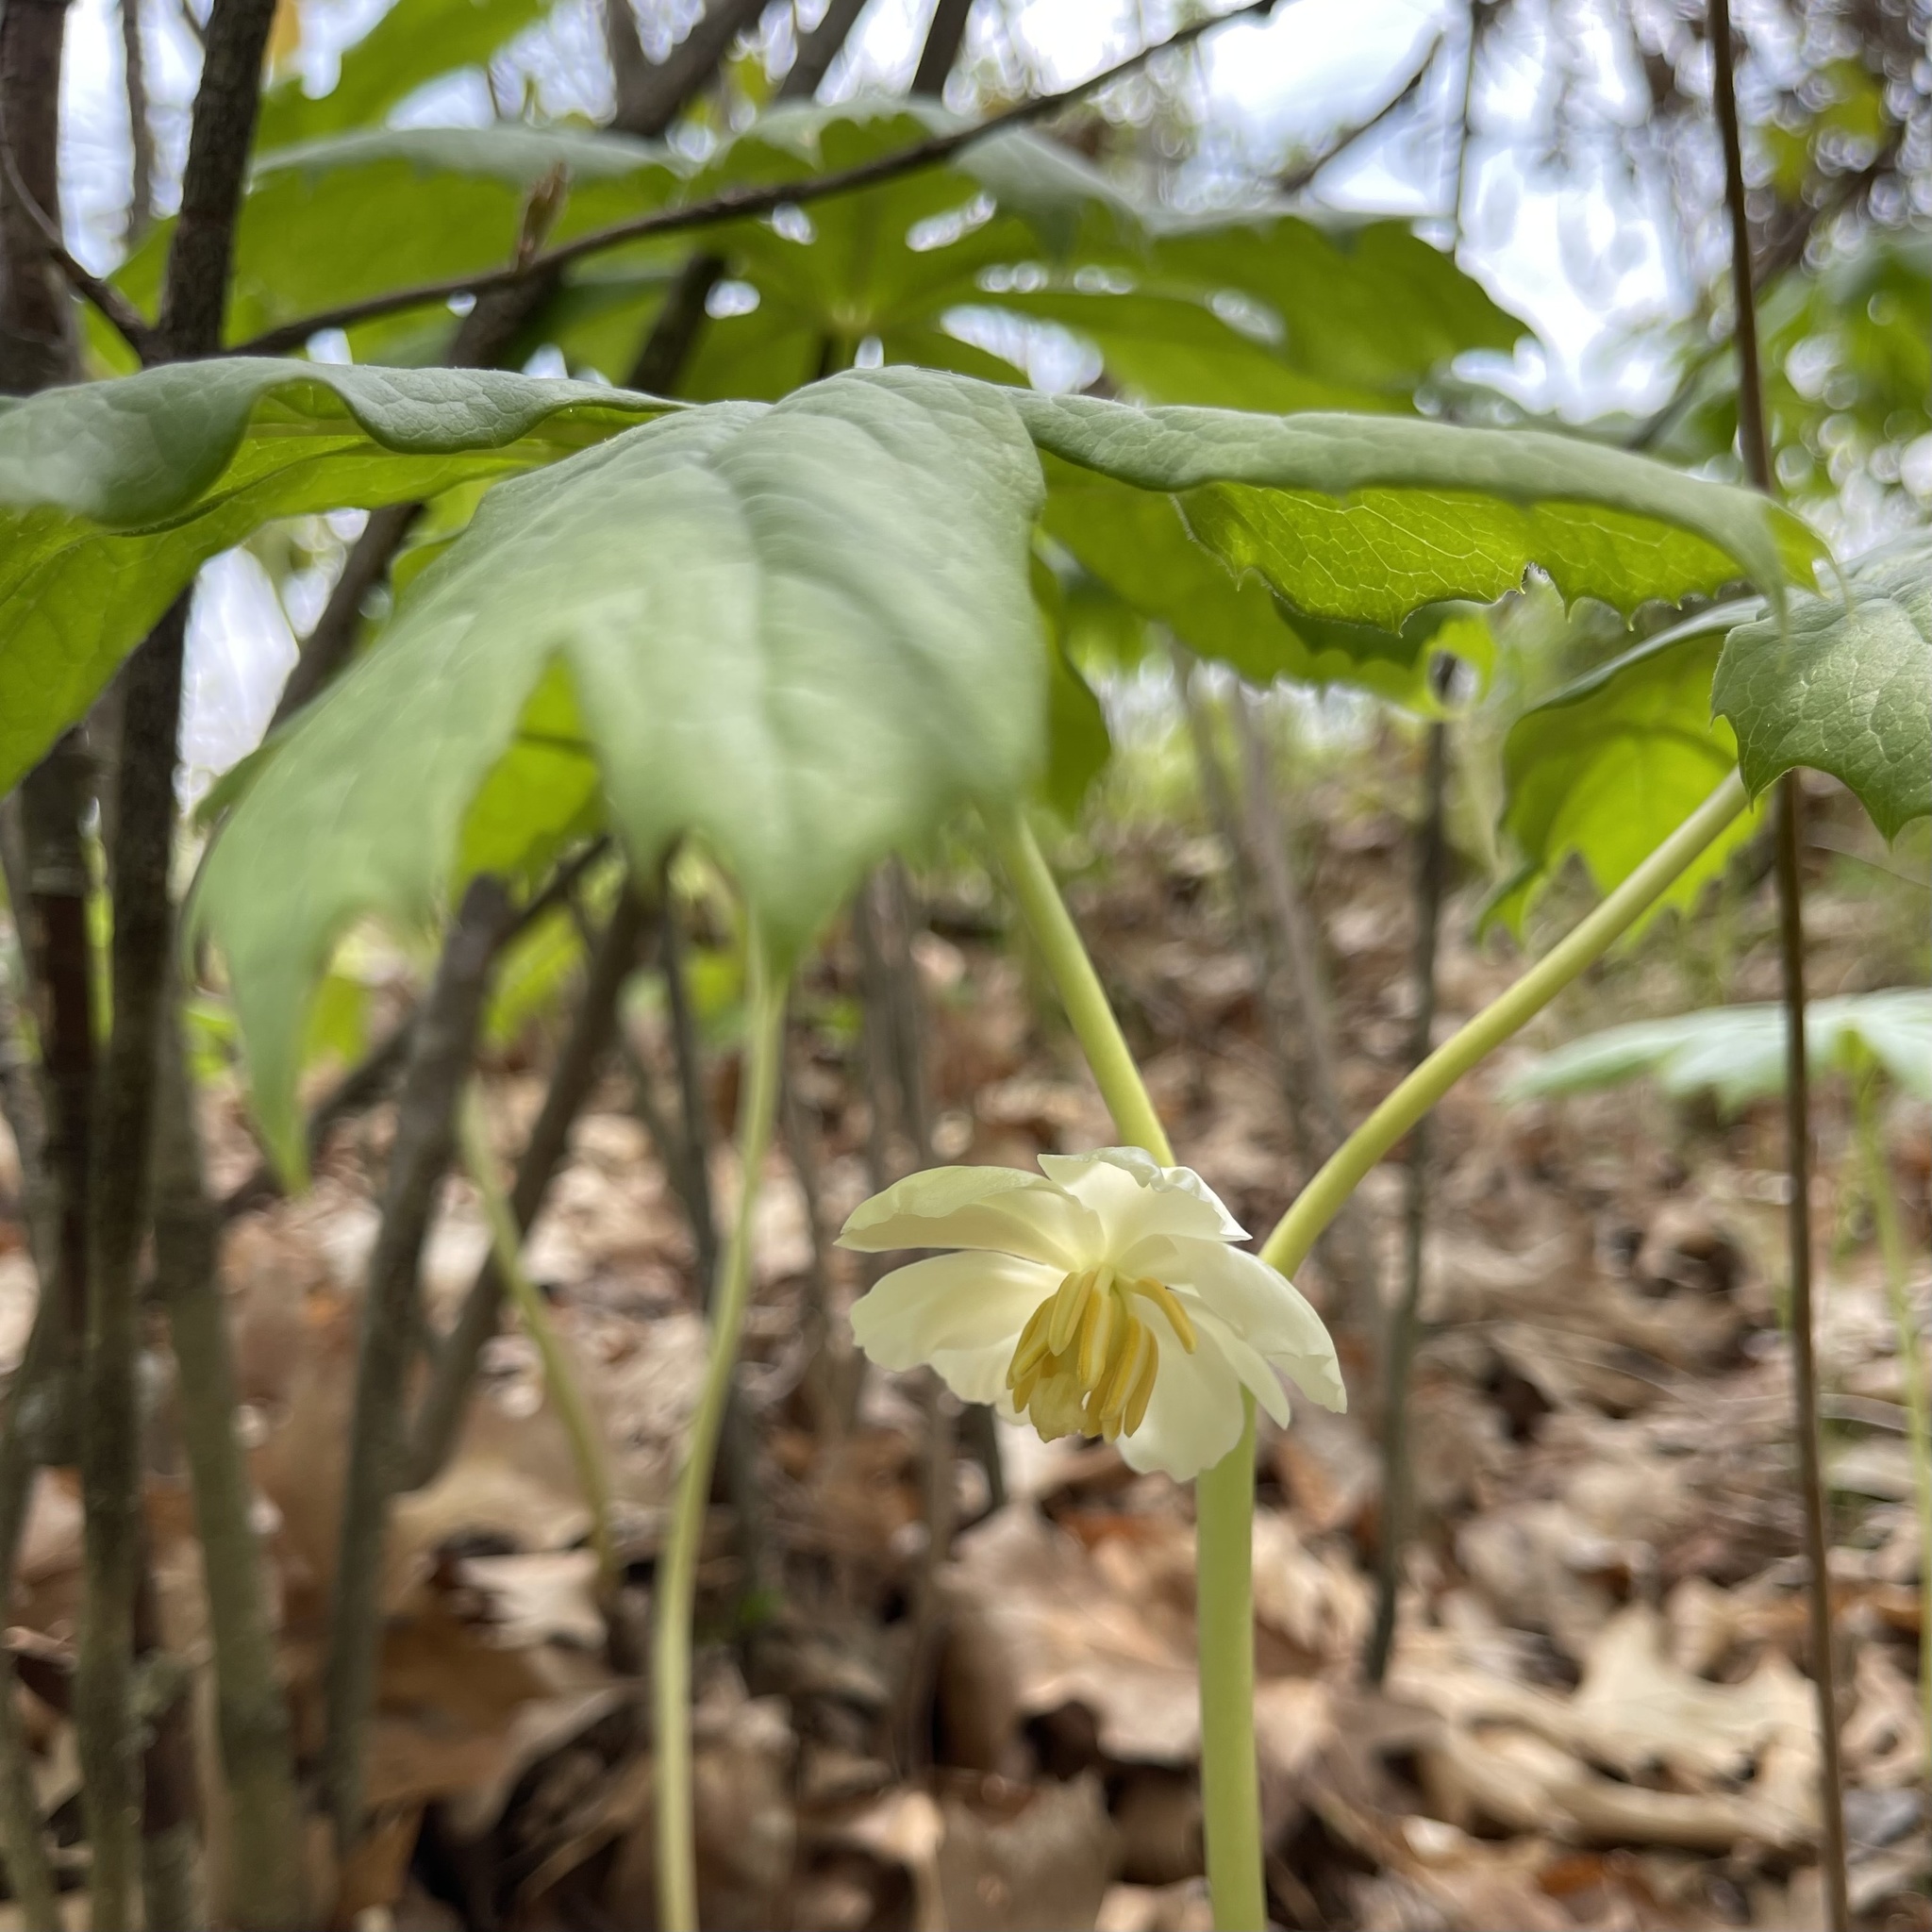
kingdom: Plantae
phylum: Tracheophyta
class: Magnoliopsida
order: Ranunculales
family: Berberidaceae
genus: Podophyllum
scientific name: Podophyllum peltatum
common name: Wild mandrake
